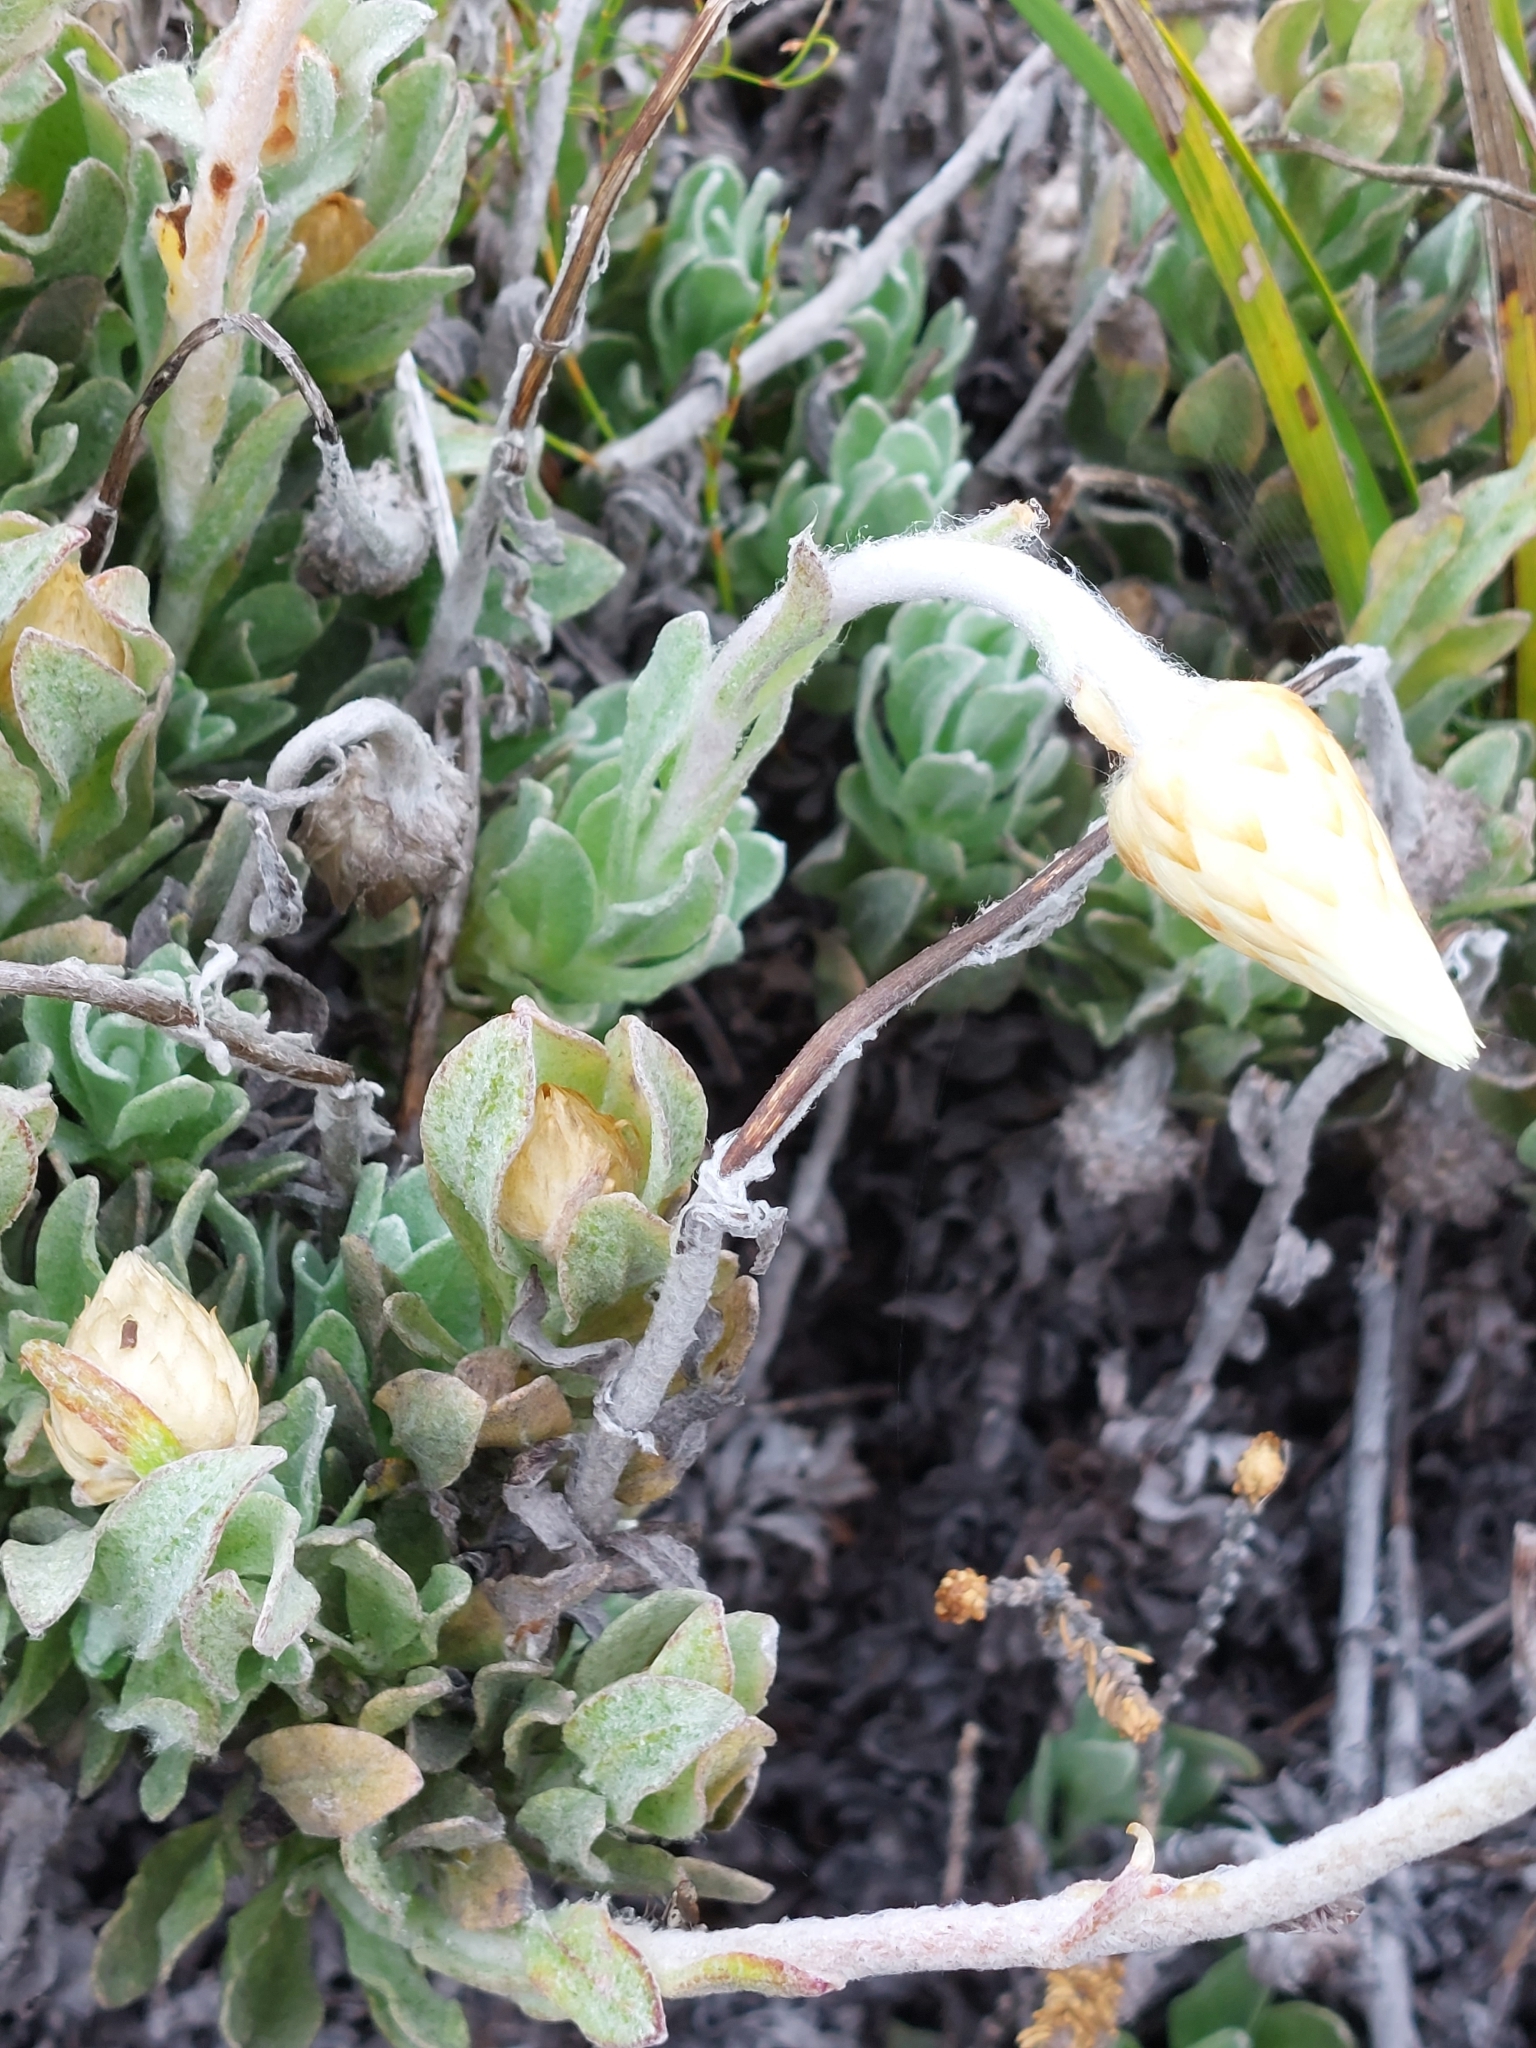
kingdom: Plantae
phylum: Tracheophyta
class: Magnoliopsida
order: Asterales
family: Asteraceae
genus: Syncarpha
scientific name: Syncarpha speciosissima
